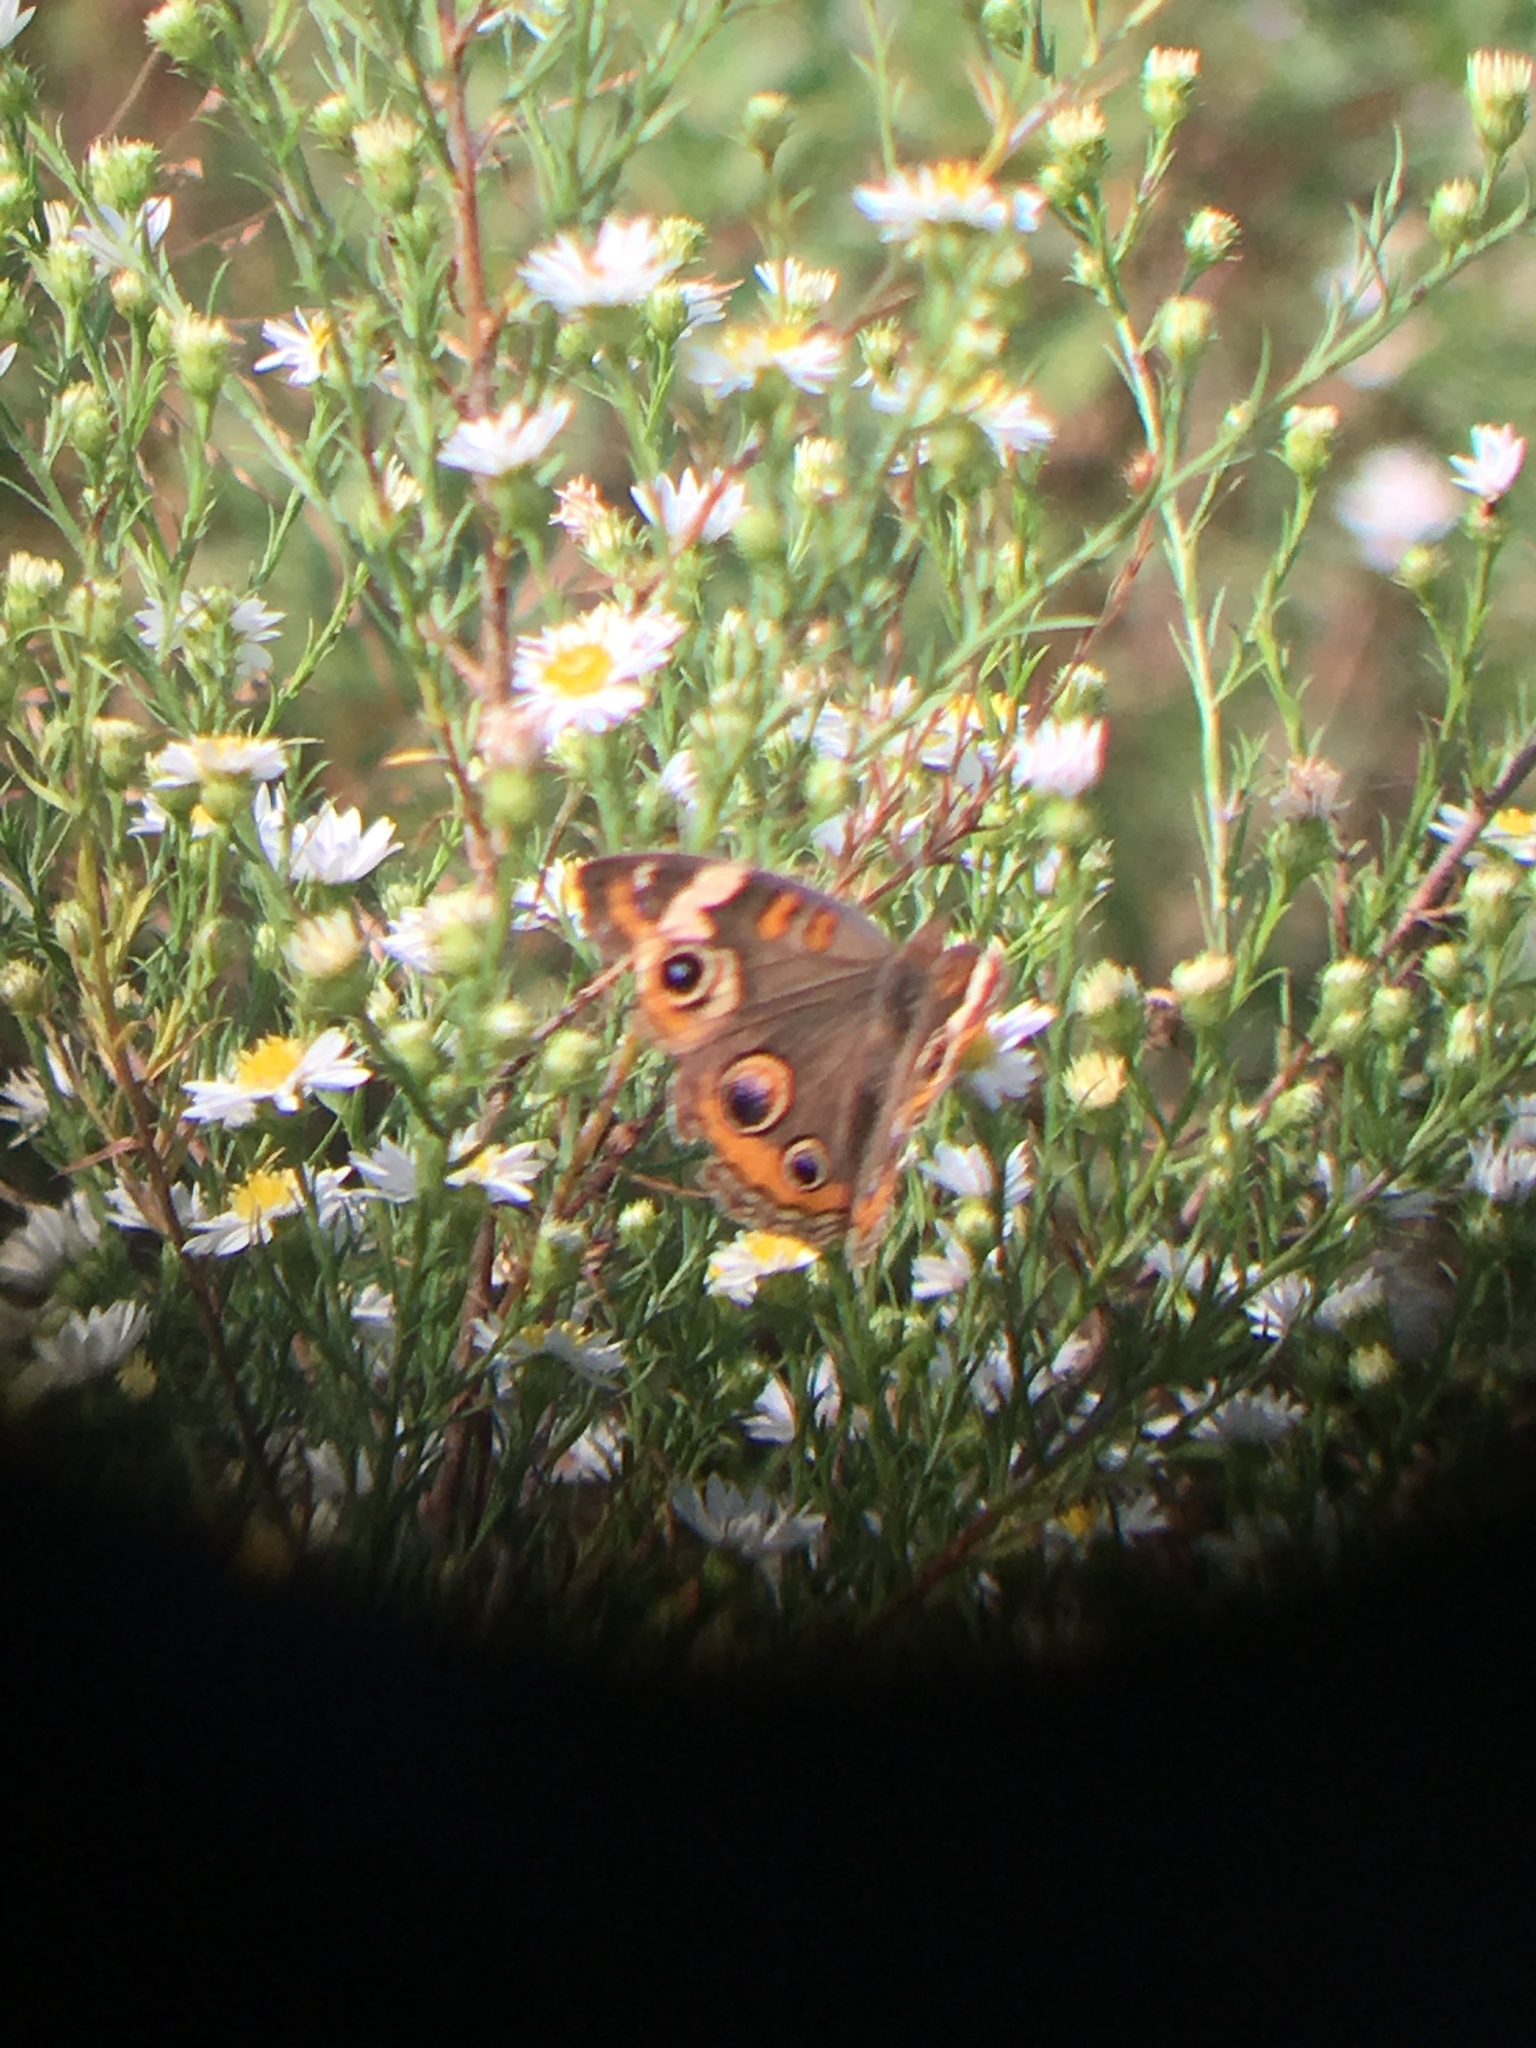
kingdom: Animalia
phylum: Arthropoda
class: Insecta
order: Lepidoptera
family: Nymphalidae
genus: Junonia
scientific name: Junonia coenia
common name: Common buckeye
